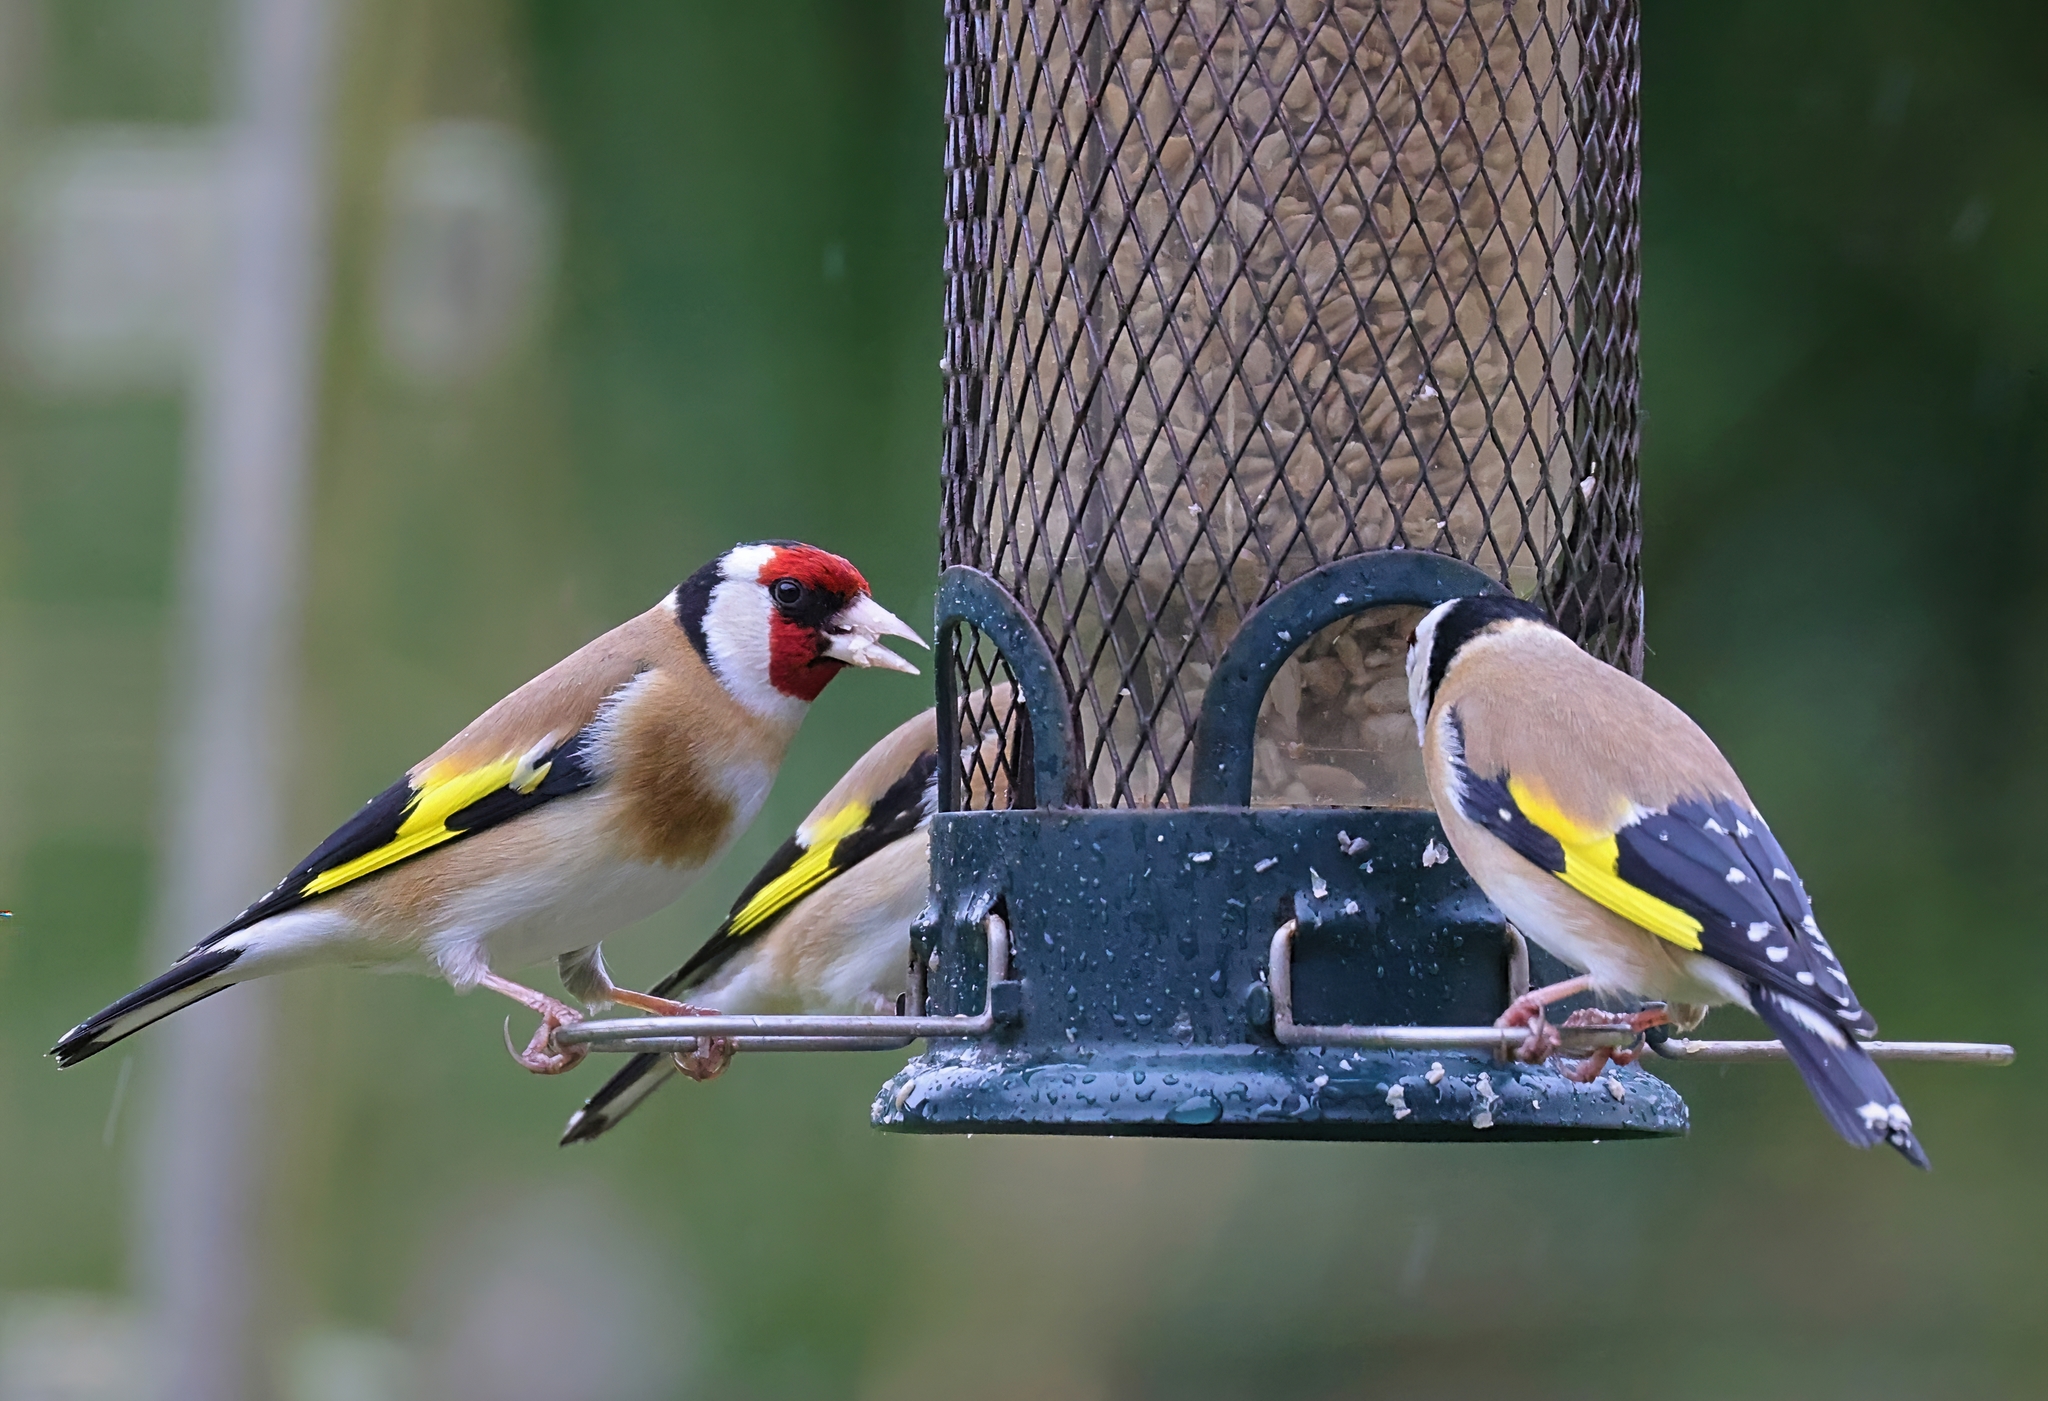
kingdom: Animalia
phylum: Chordata
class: Aves
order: Passeriformes
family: Fringillidae
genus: Carduelis
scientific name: Carduelis carduelis
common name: European goldfinch
